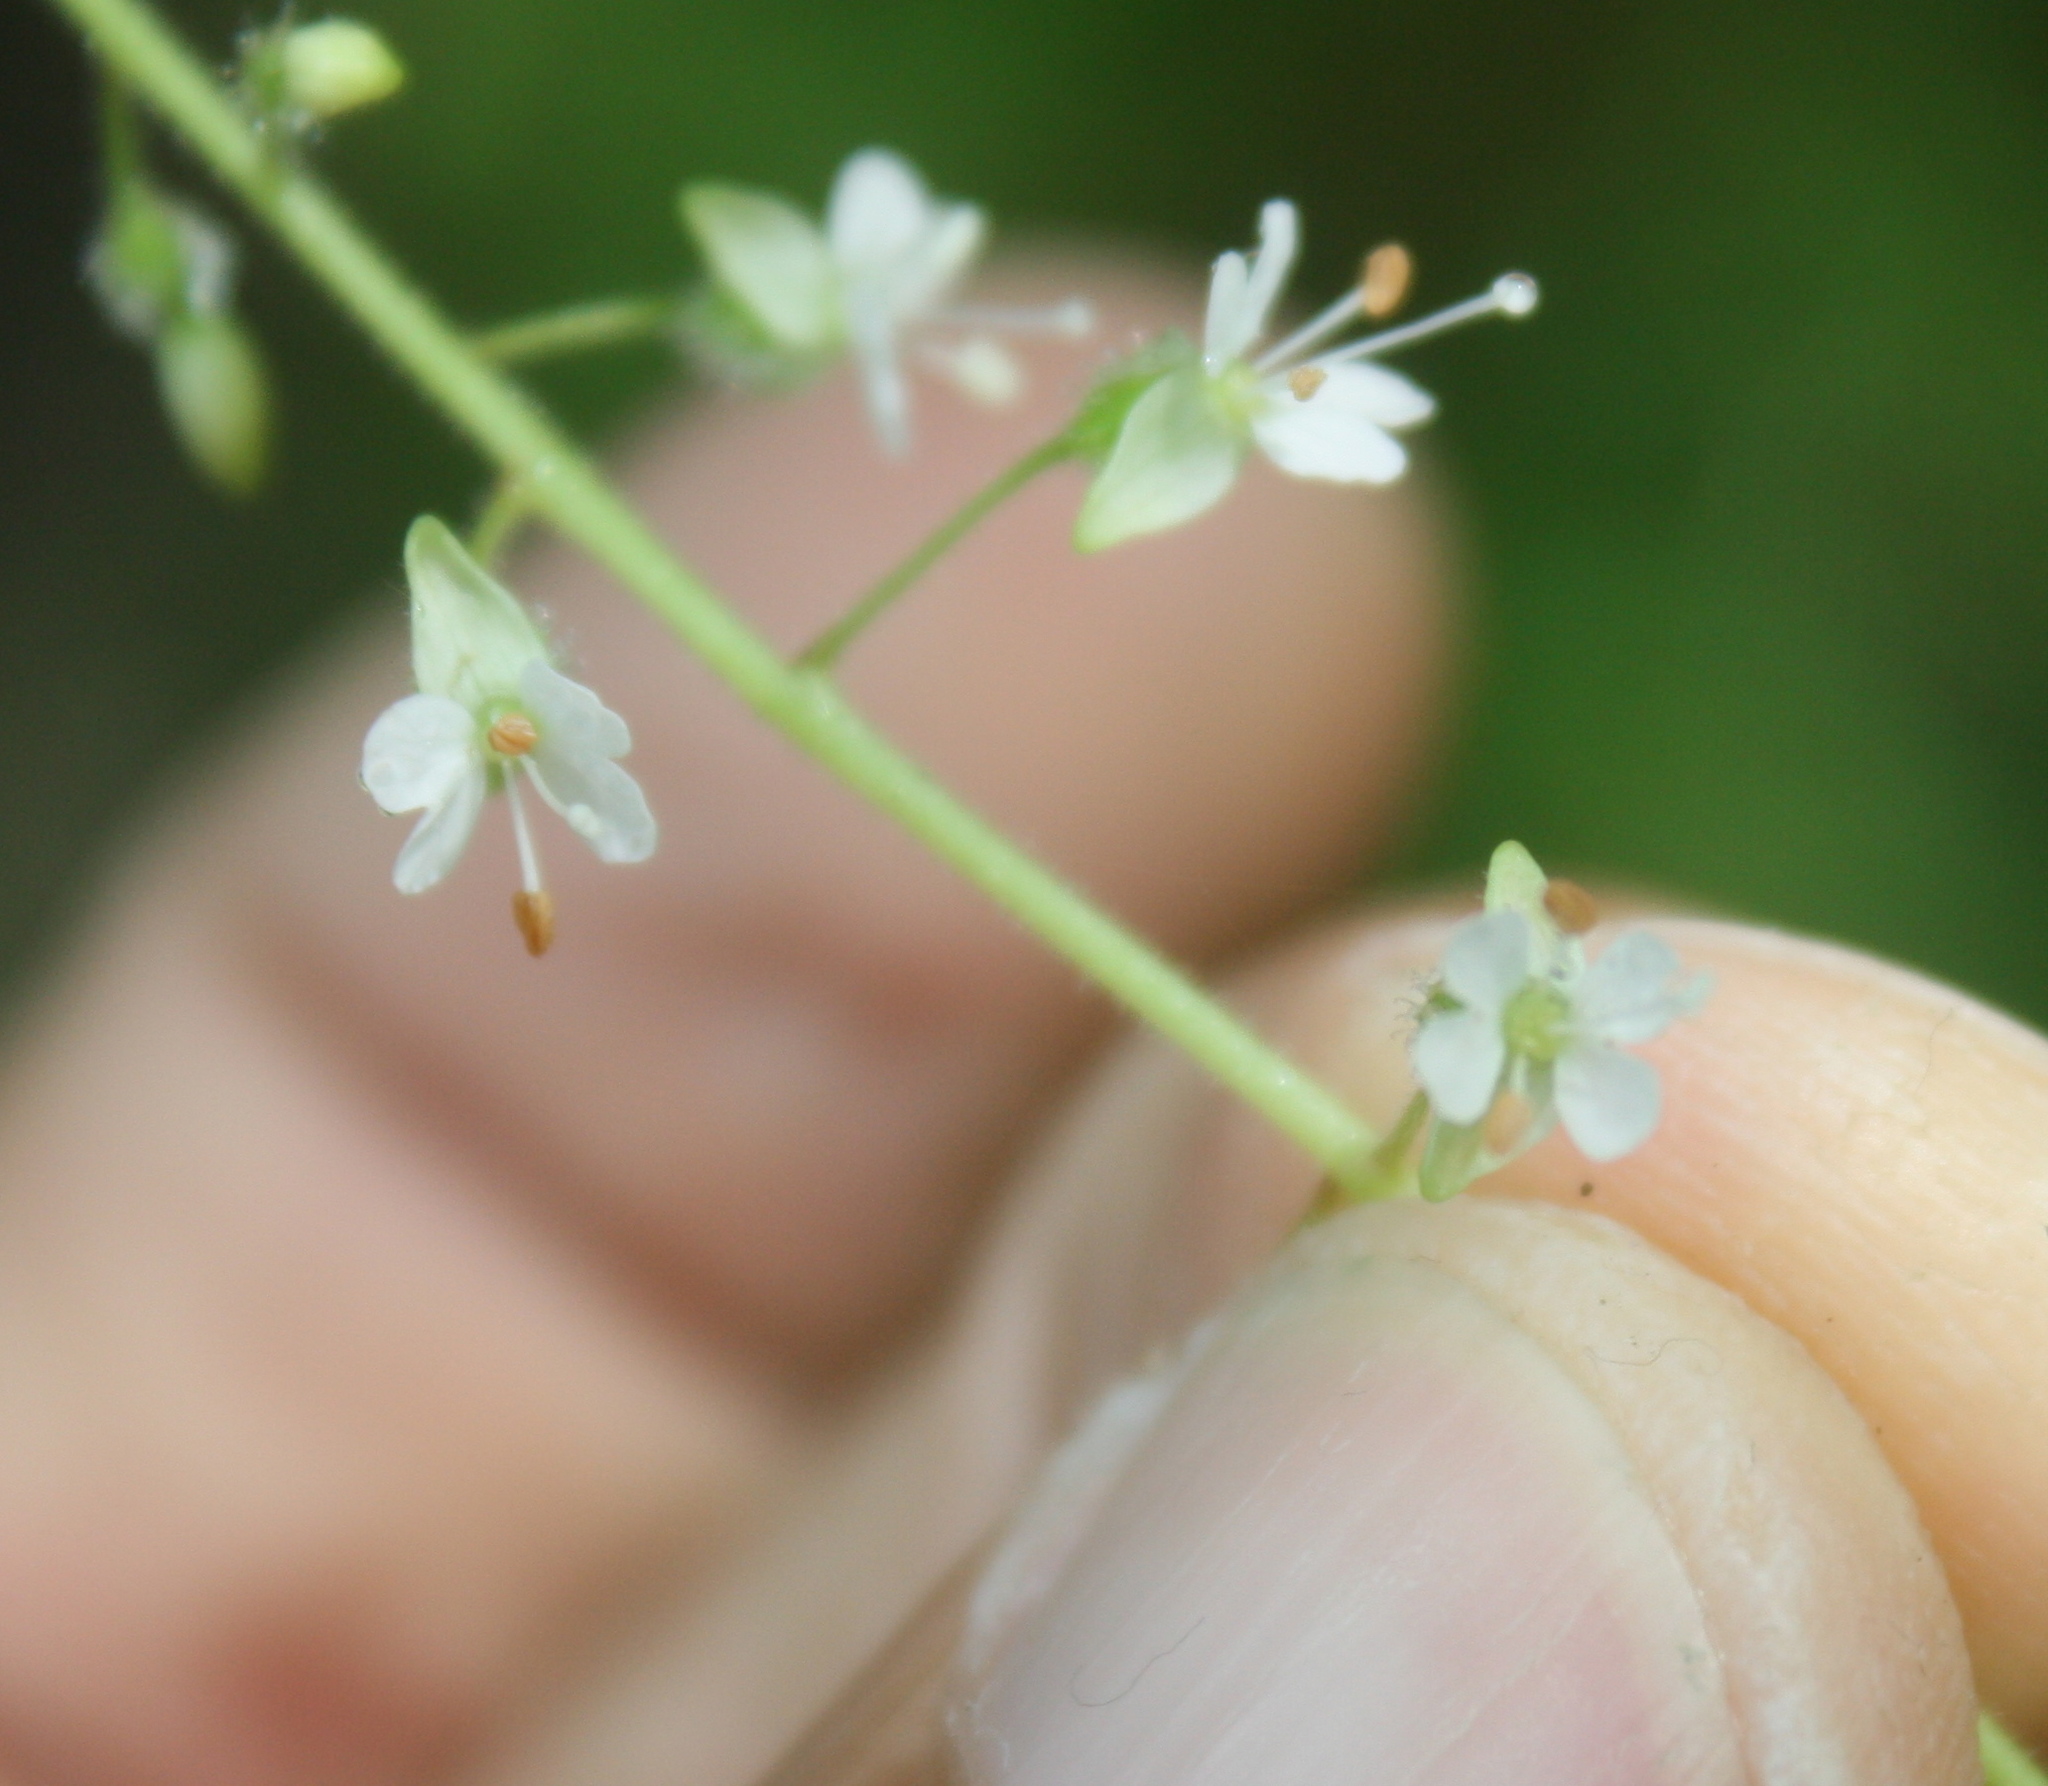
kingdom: Plantae
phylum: Tracheophyta
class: Magnoliopsida
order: Myrtales
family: Onagraceae
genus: Circaea
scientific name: Circaea canadensis
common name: Broad-leaved enchanter's nightshade
